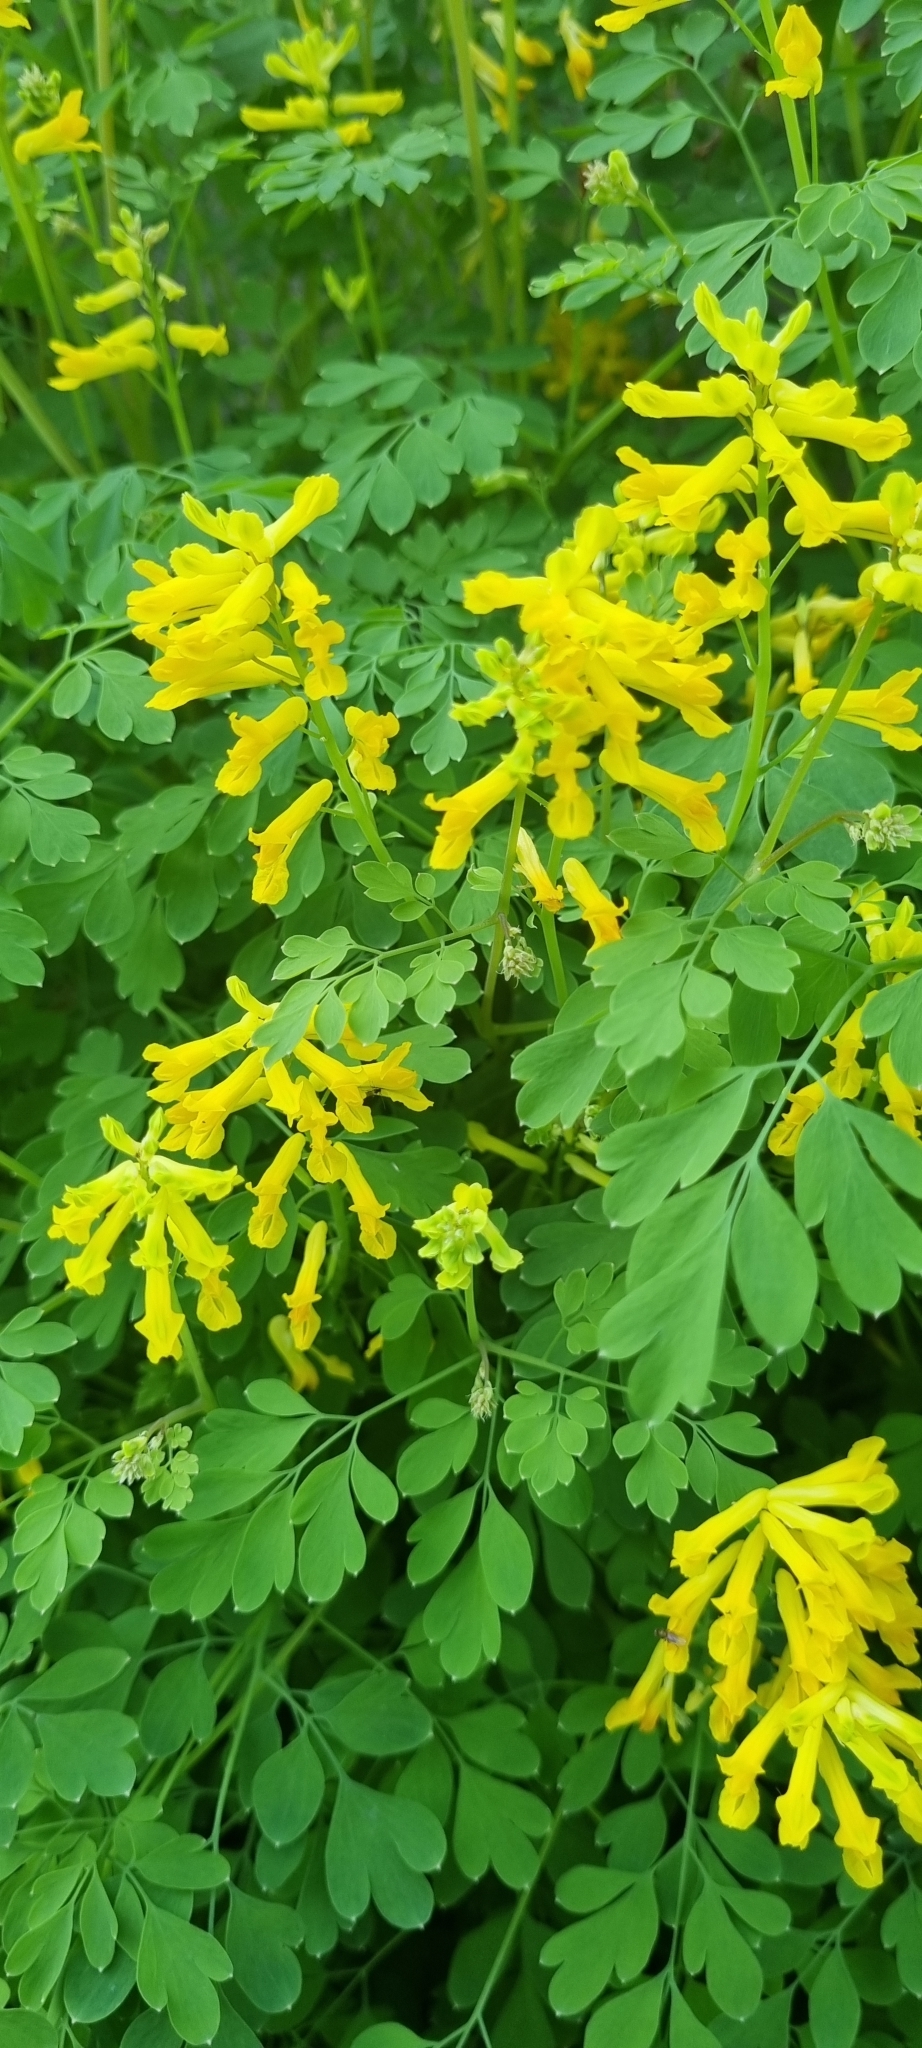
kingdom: Plantae
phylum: Tracheophyta
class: Magnoliopsida
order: Ranunculales
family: Papaveraceae
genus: Pseudofumaria
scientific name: Pseudofumaria lutea
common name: Yellow corydalis
